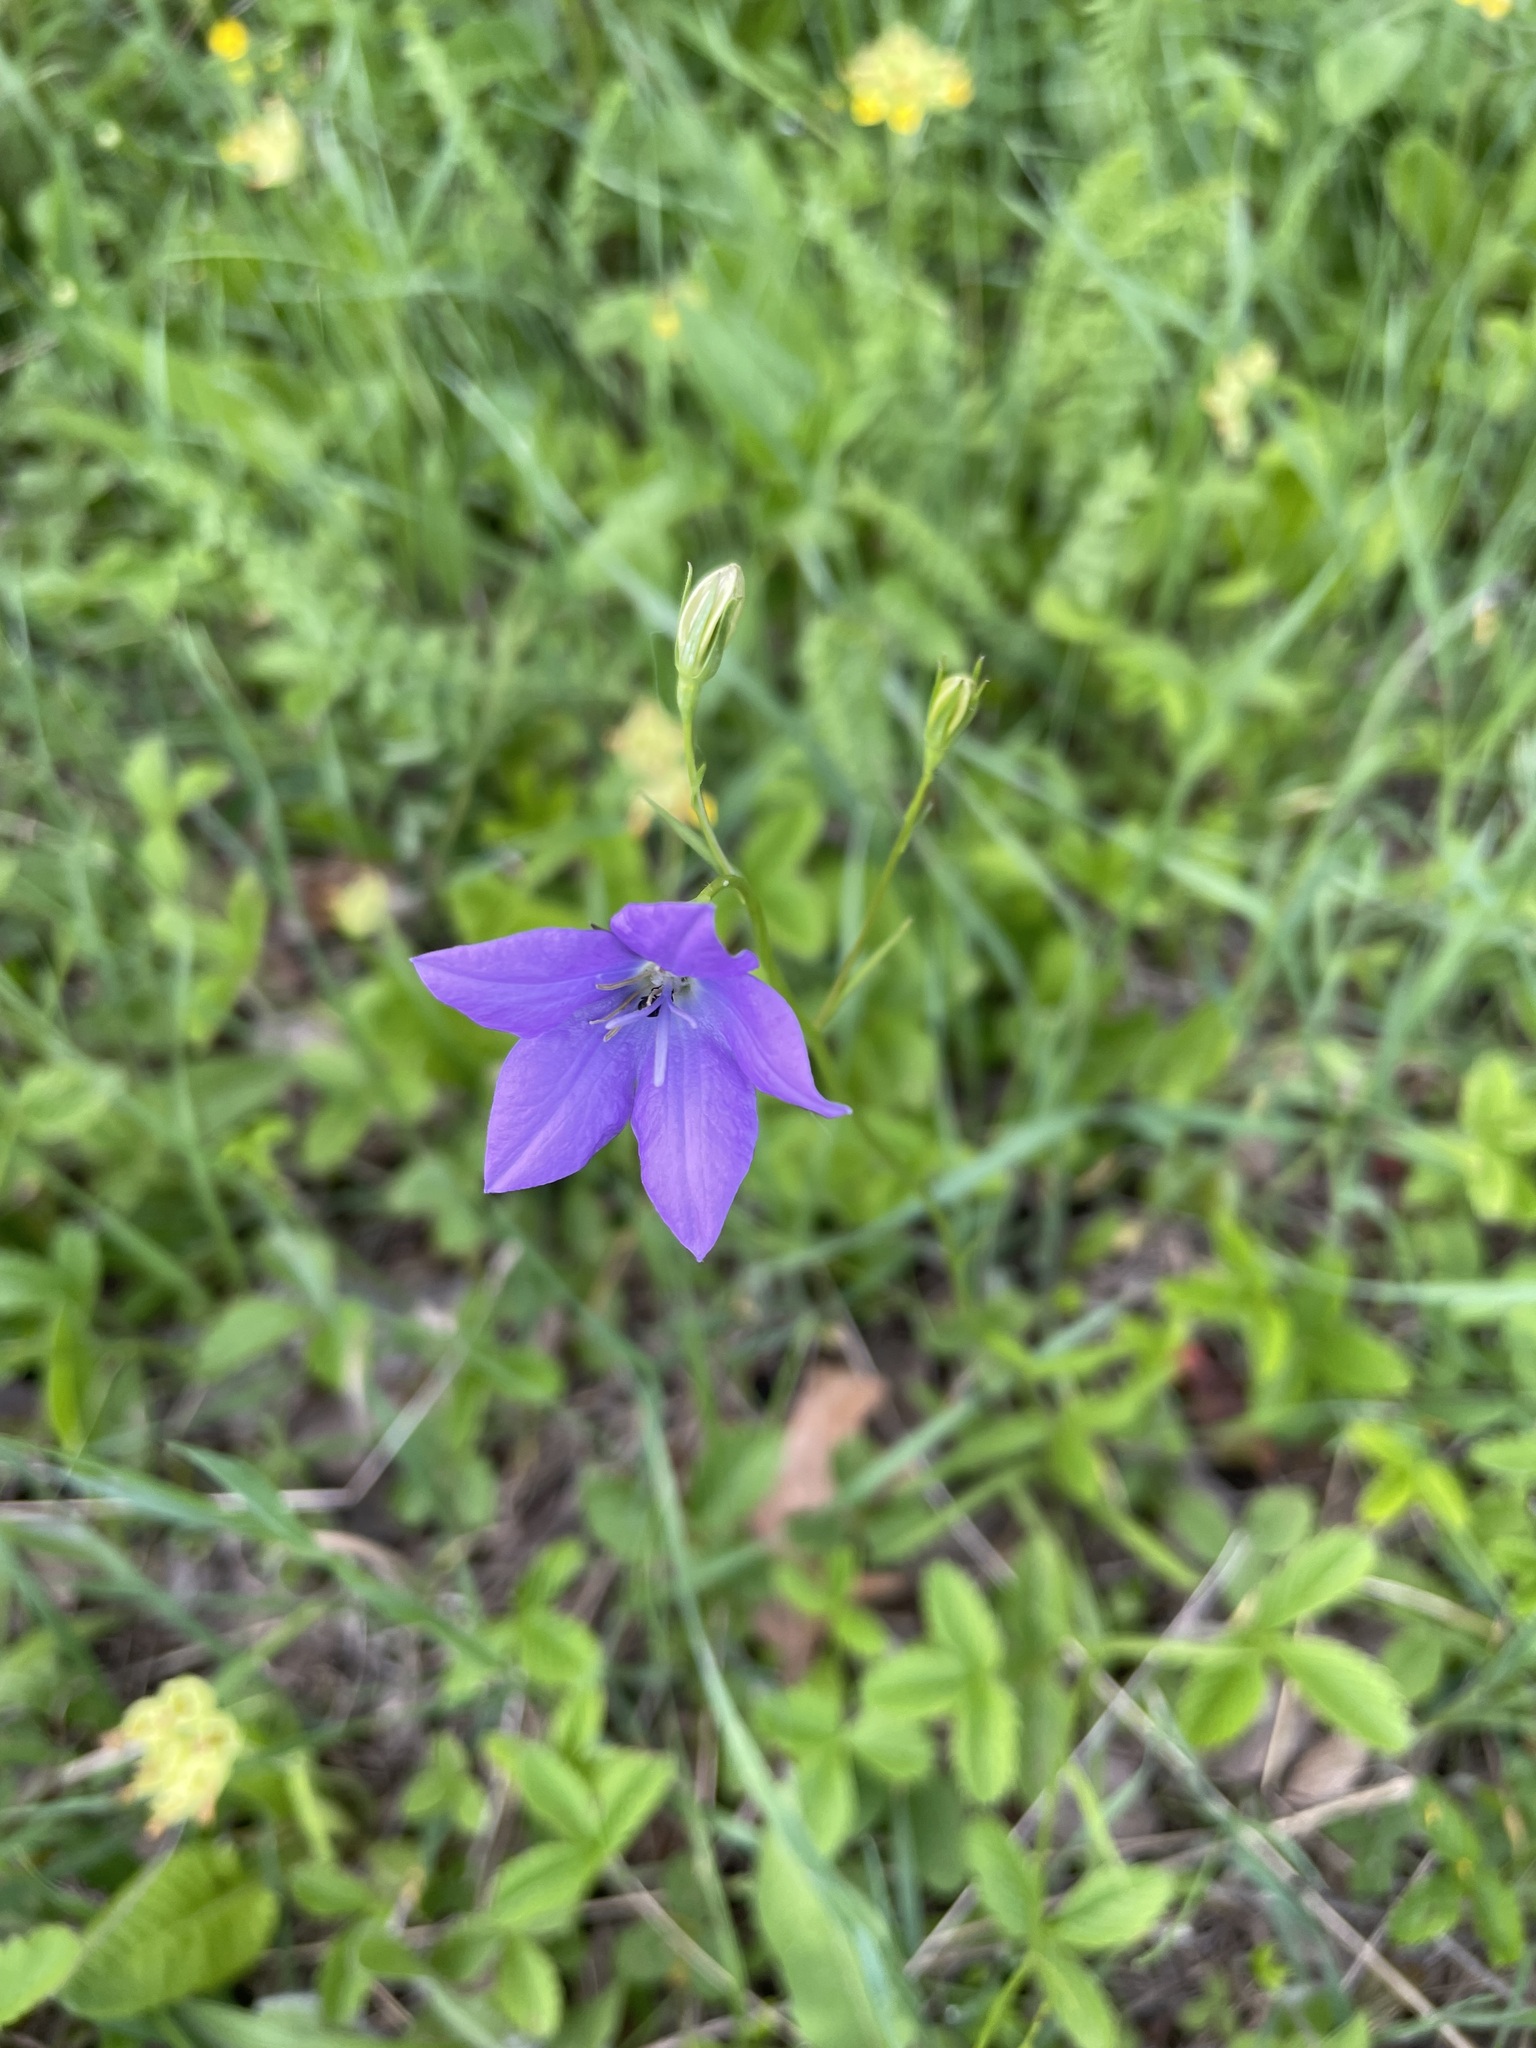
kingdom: Plantae
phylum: Tracheophyta
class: Magnoliopsida
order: Asterales
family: Campanulaceae
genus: Campanula
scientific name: Campanula stevenii
